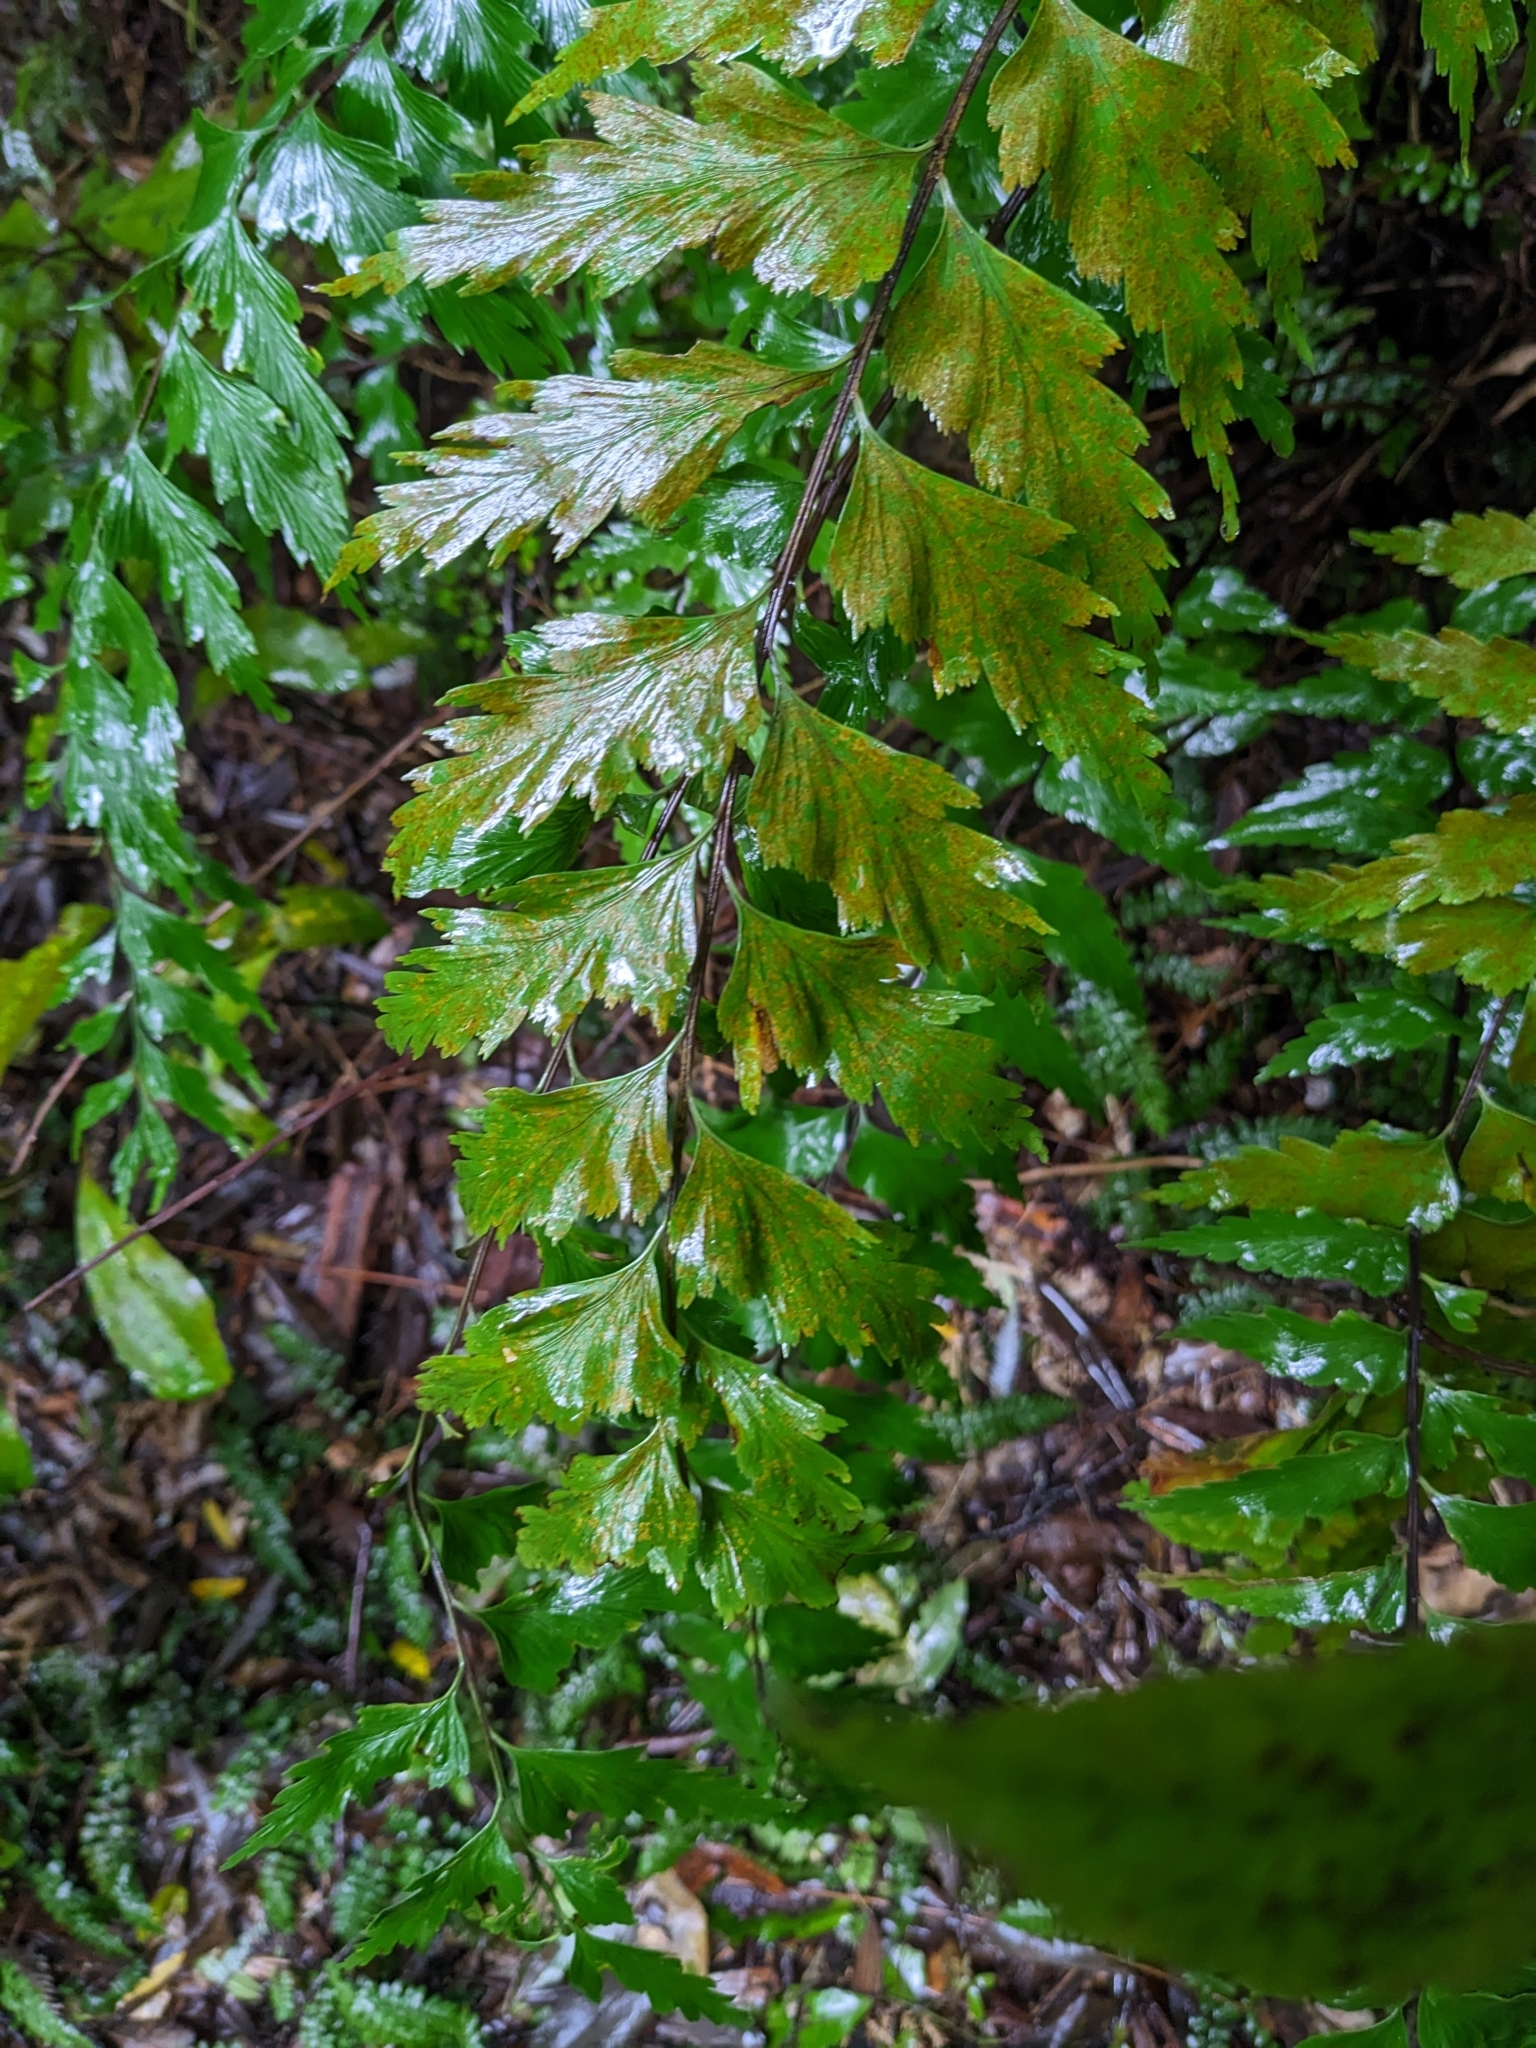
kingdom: Plantae
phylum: Tracheophyta
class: Polypodiopsida
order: Polypodiales
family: Aspleniaceae
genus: Asplenium
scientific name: Asplenium polyodon
